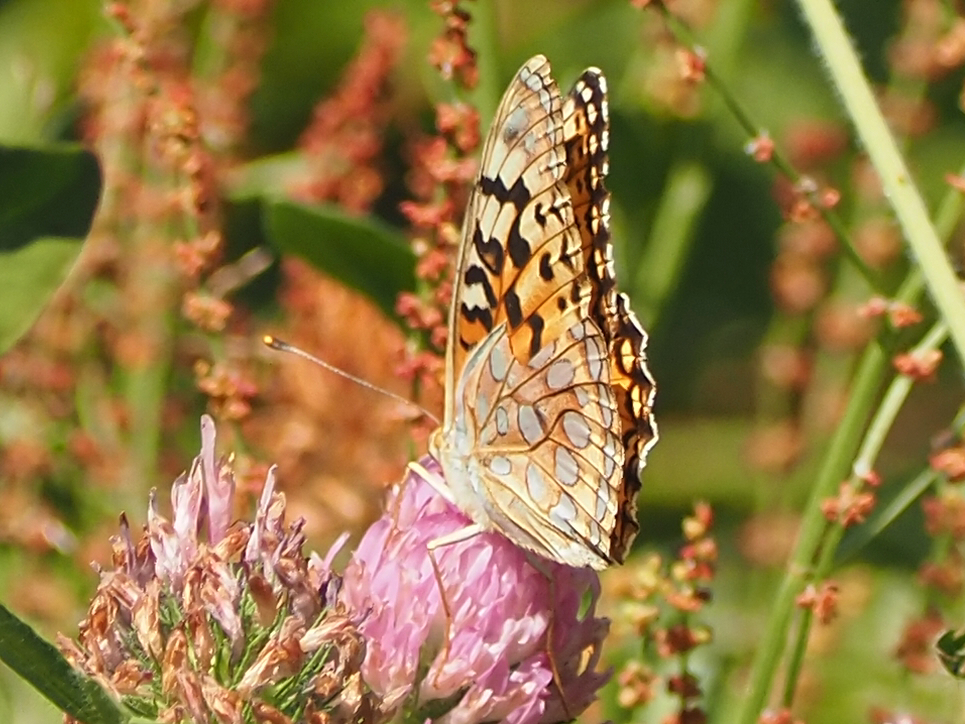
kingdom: Animalia
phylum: Arthropoda
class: Insecta
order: Lepidoptera
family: Nymphalidae
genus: Argynnis
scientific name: Argynnis coronis
